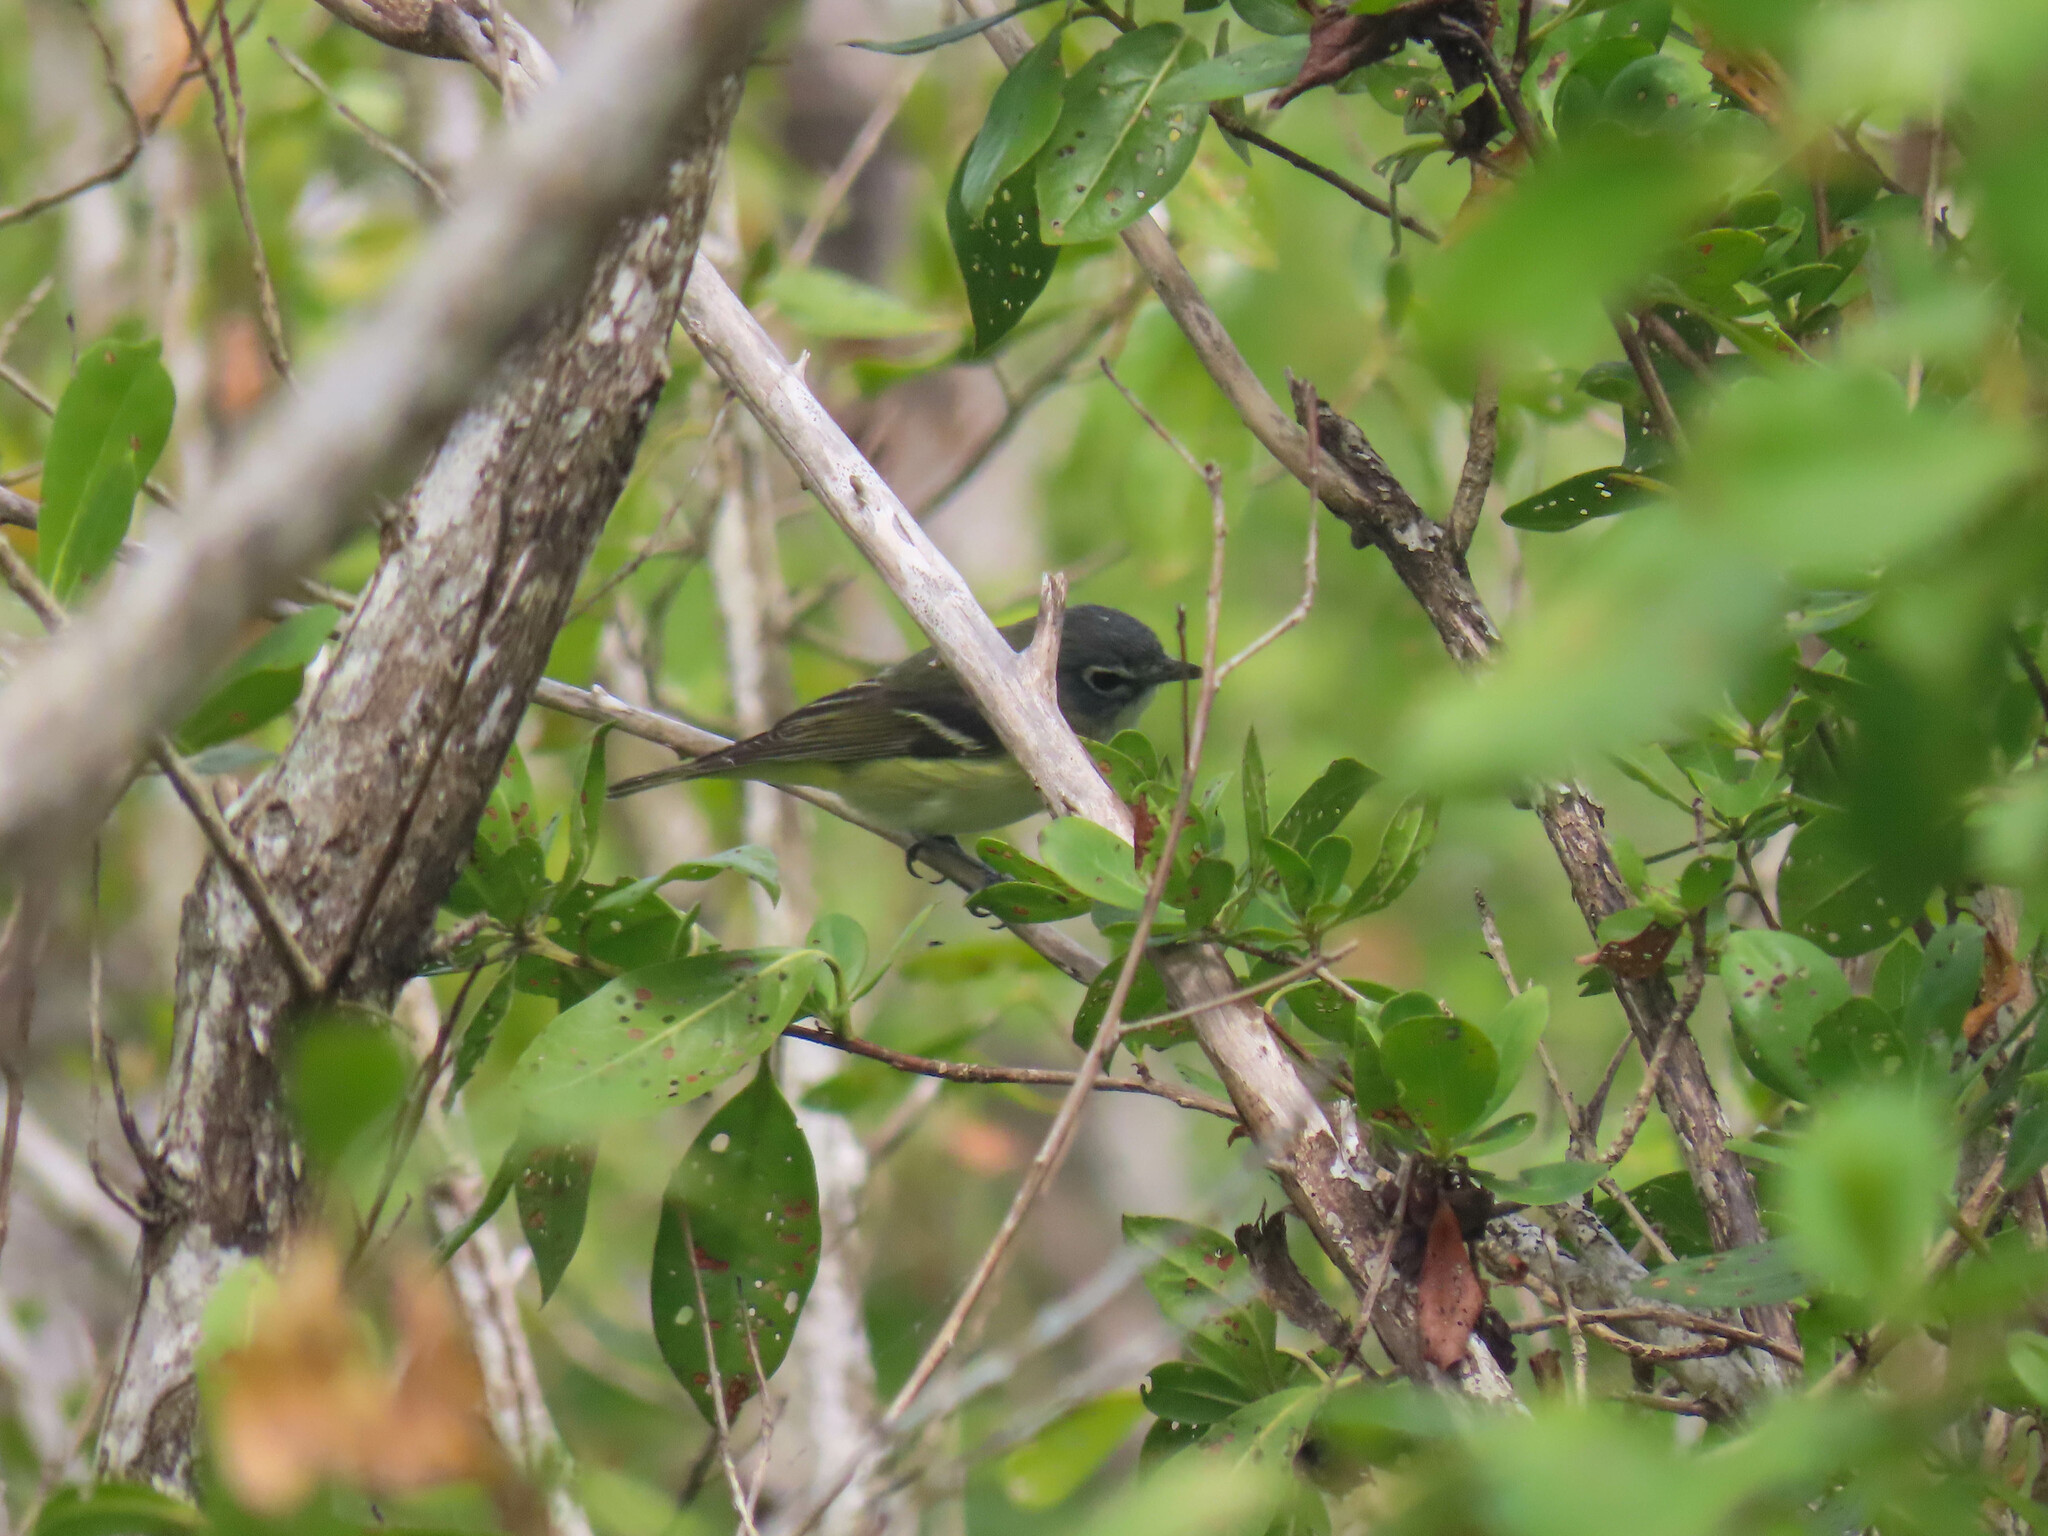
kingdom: Animalia
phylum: Chordata
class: Aves
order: Passeriformes
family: Vireonidae
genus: Vireo
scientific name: Vireo solitarius
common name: Blue-headed vireo
